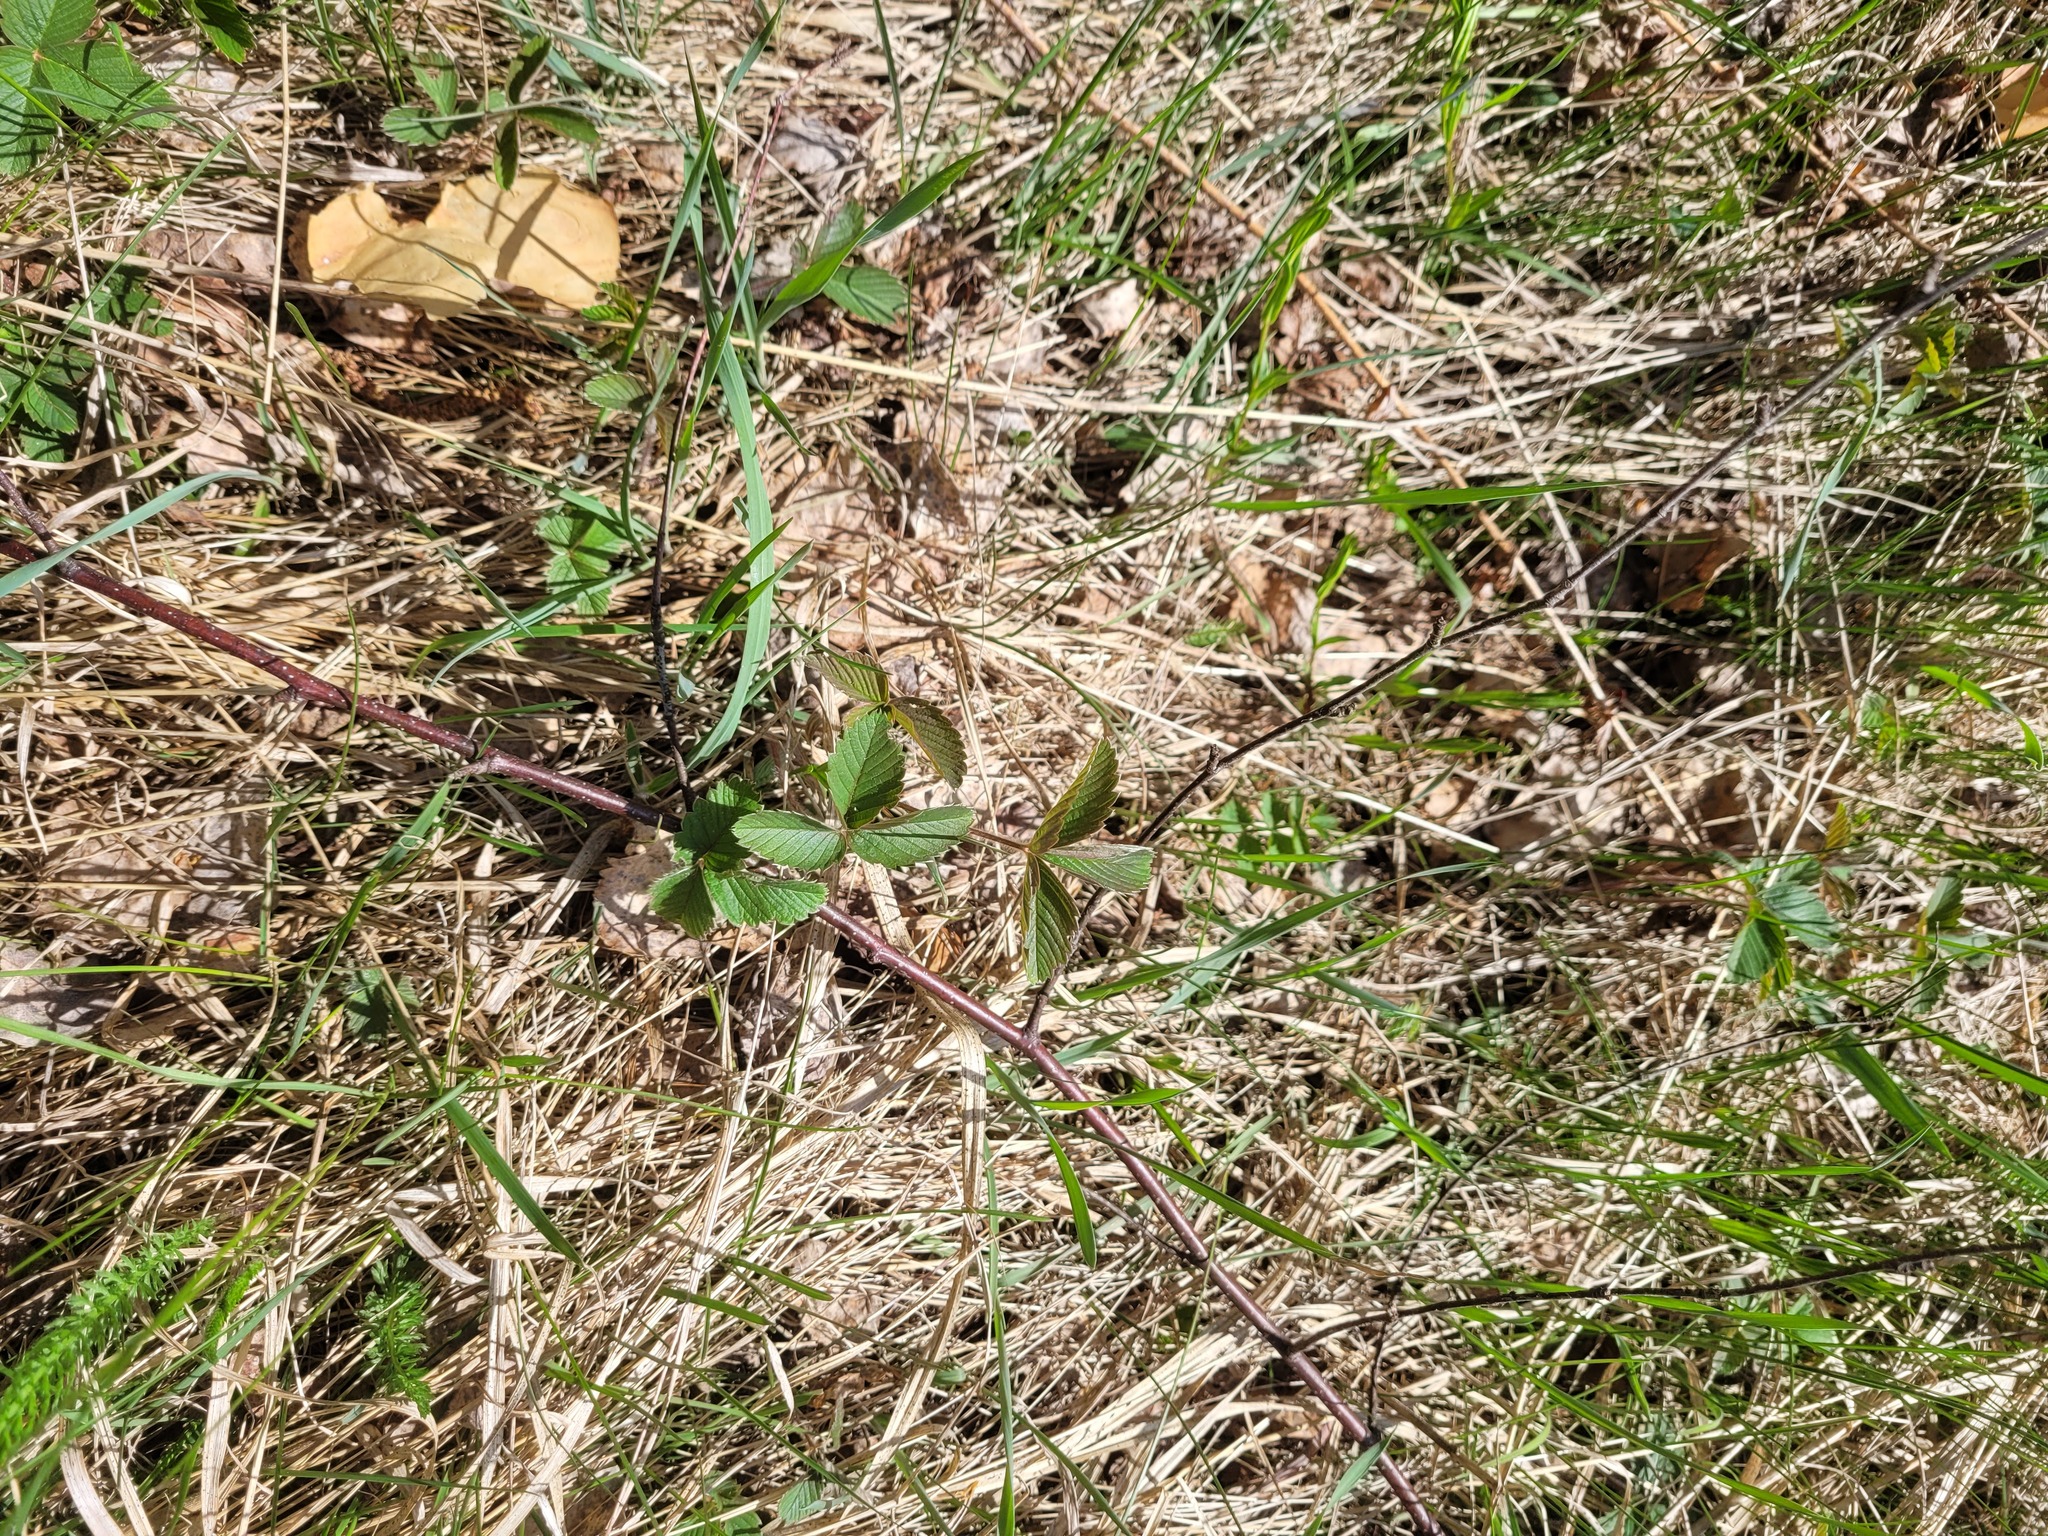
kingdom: Plantae
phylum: Tracheophyta
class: Magnoliopsida
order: Rosales
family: Rosaceae
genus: Fragaria
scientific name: Fragaria viridis
